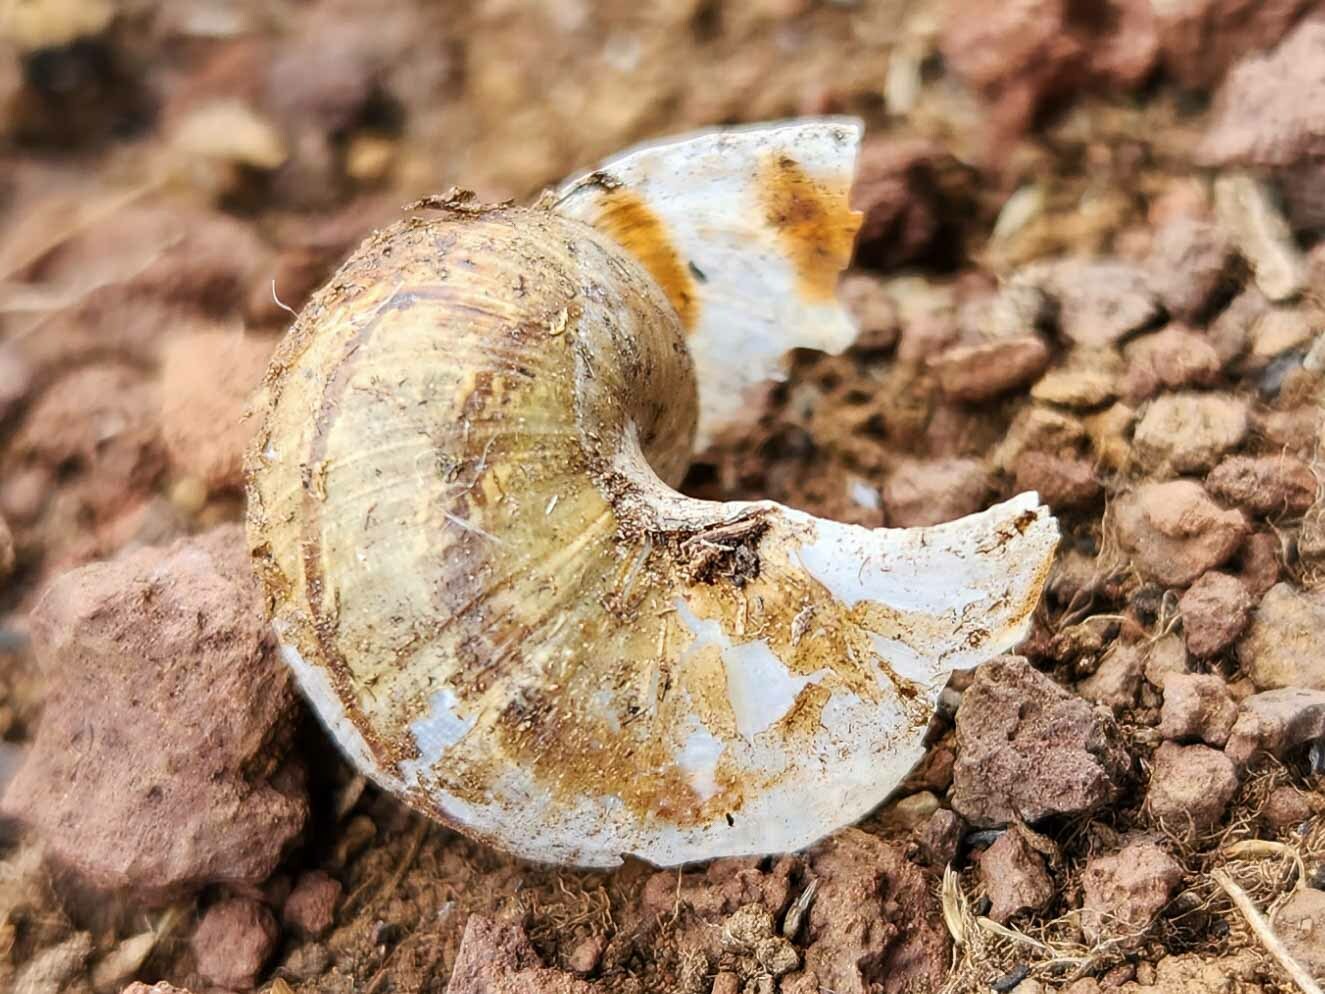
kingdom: Animalia
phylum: Mollusca
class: Gastropoda
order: Stylommatophora
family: Helicidae
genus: Cornu
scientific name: Cornu aspersum
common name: Brown garden snail
